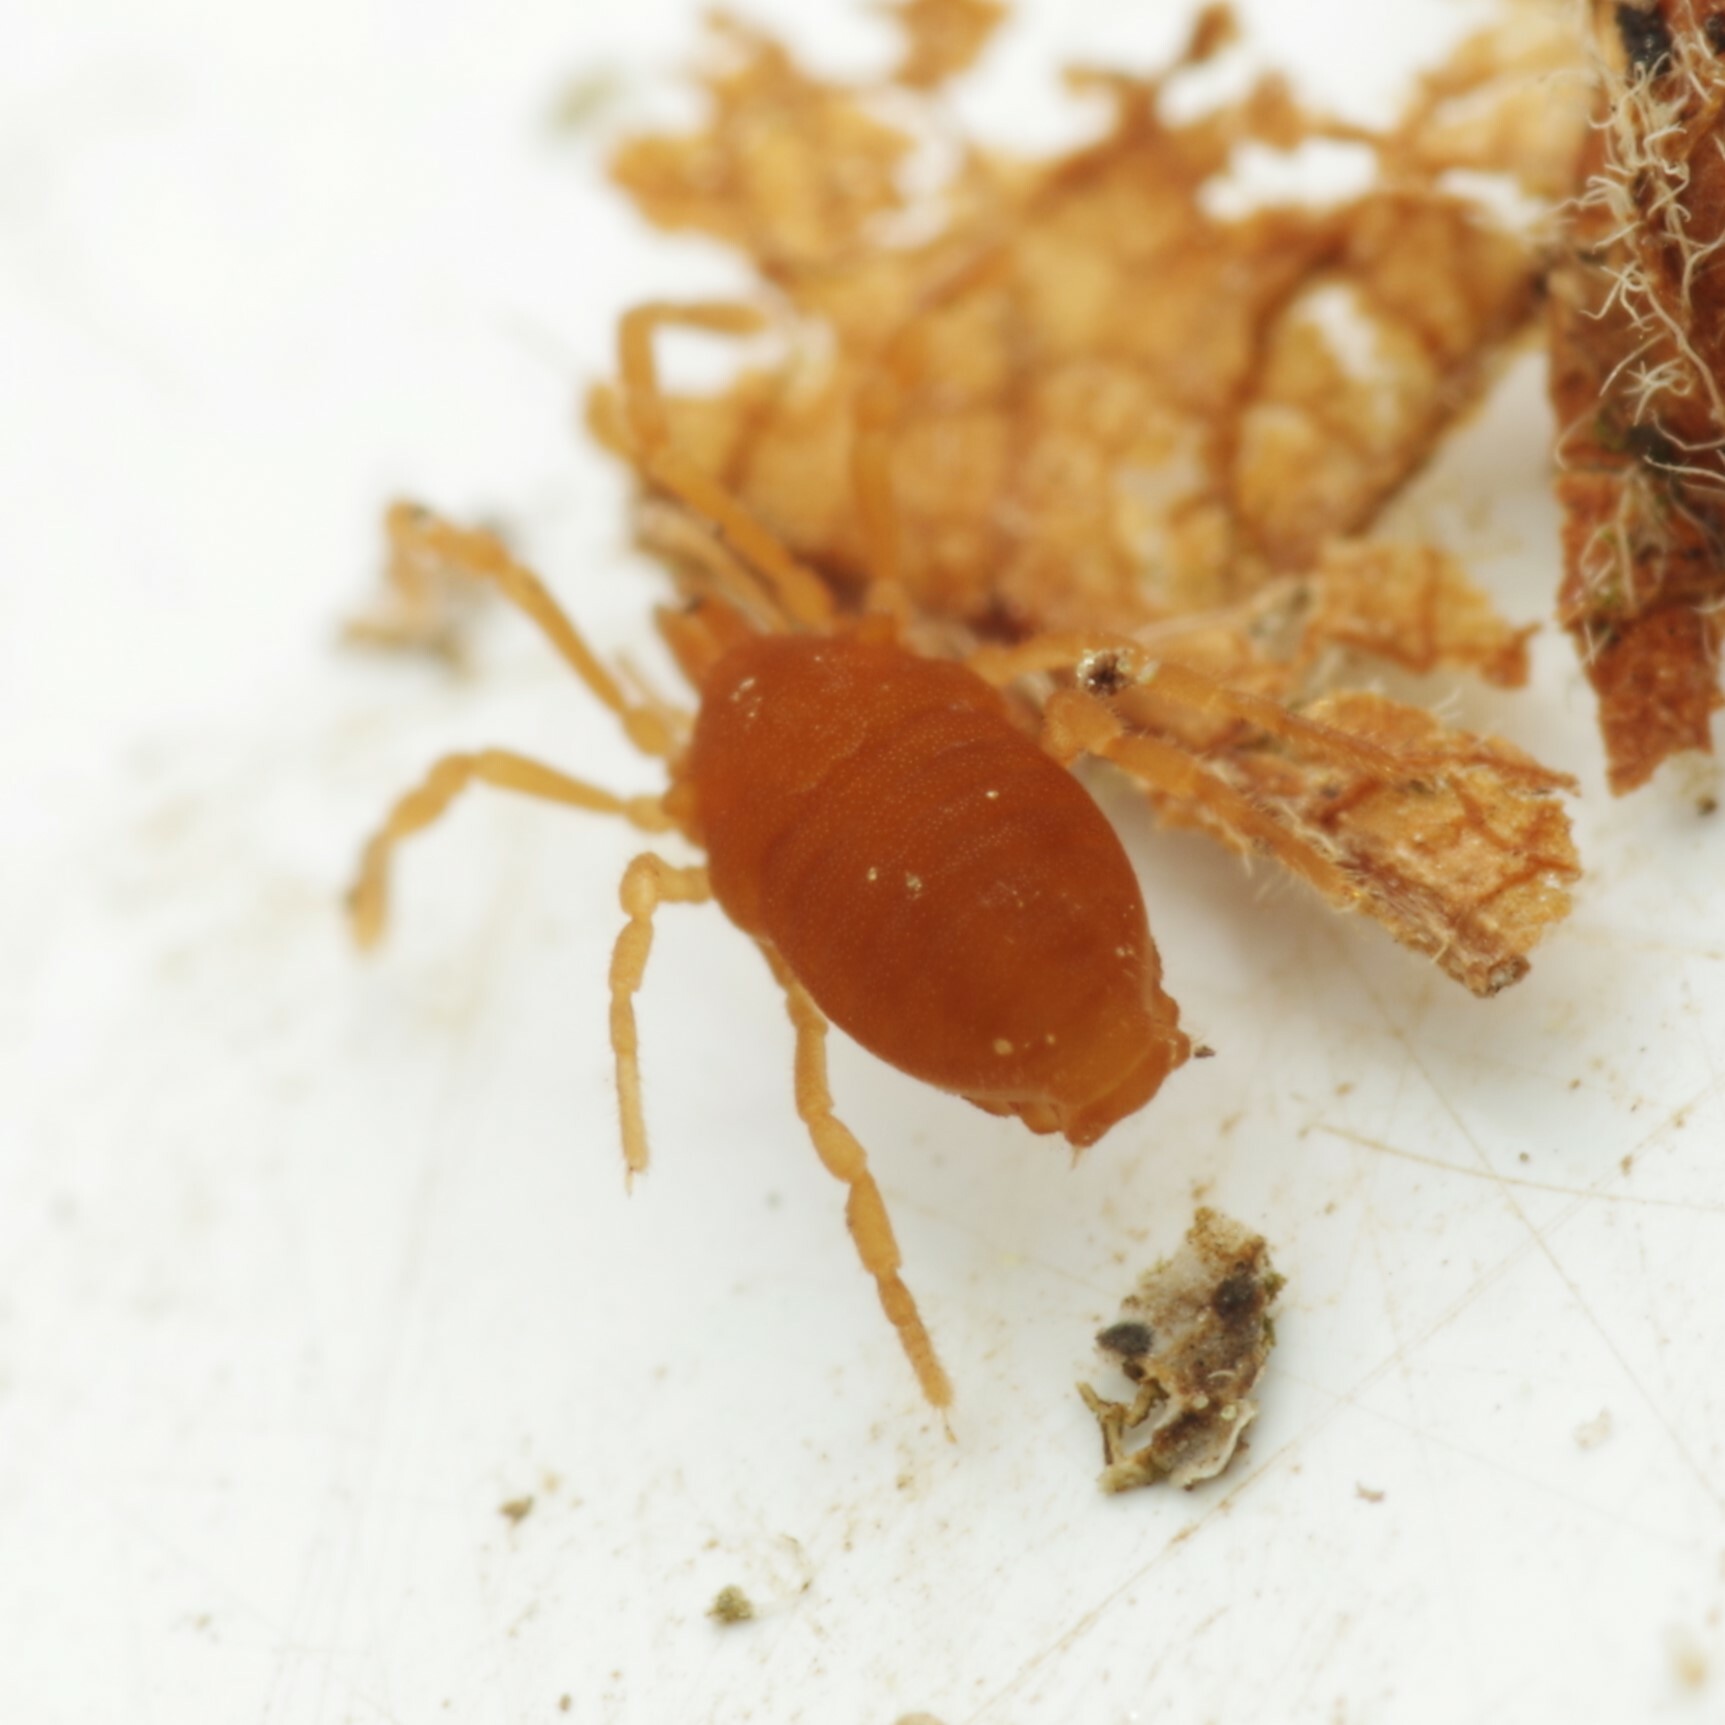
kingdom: Animalia
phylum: Arthropoda
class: Arachnida
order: Opiliones
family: Sironidae
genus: Siro
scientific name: Siro rubens
